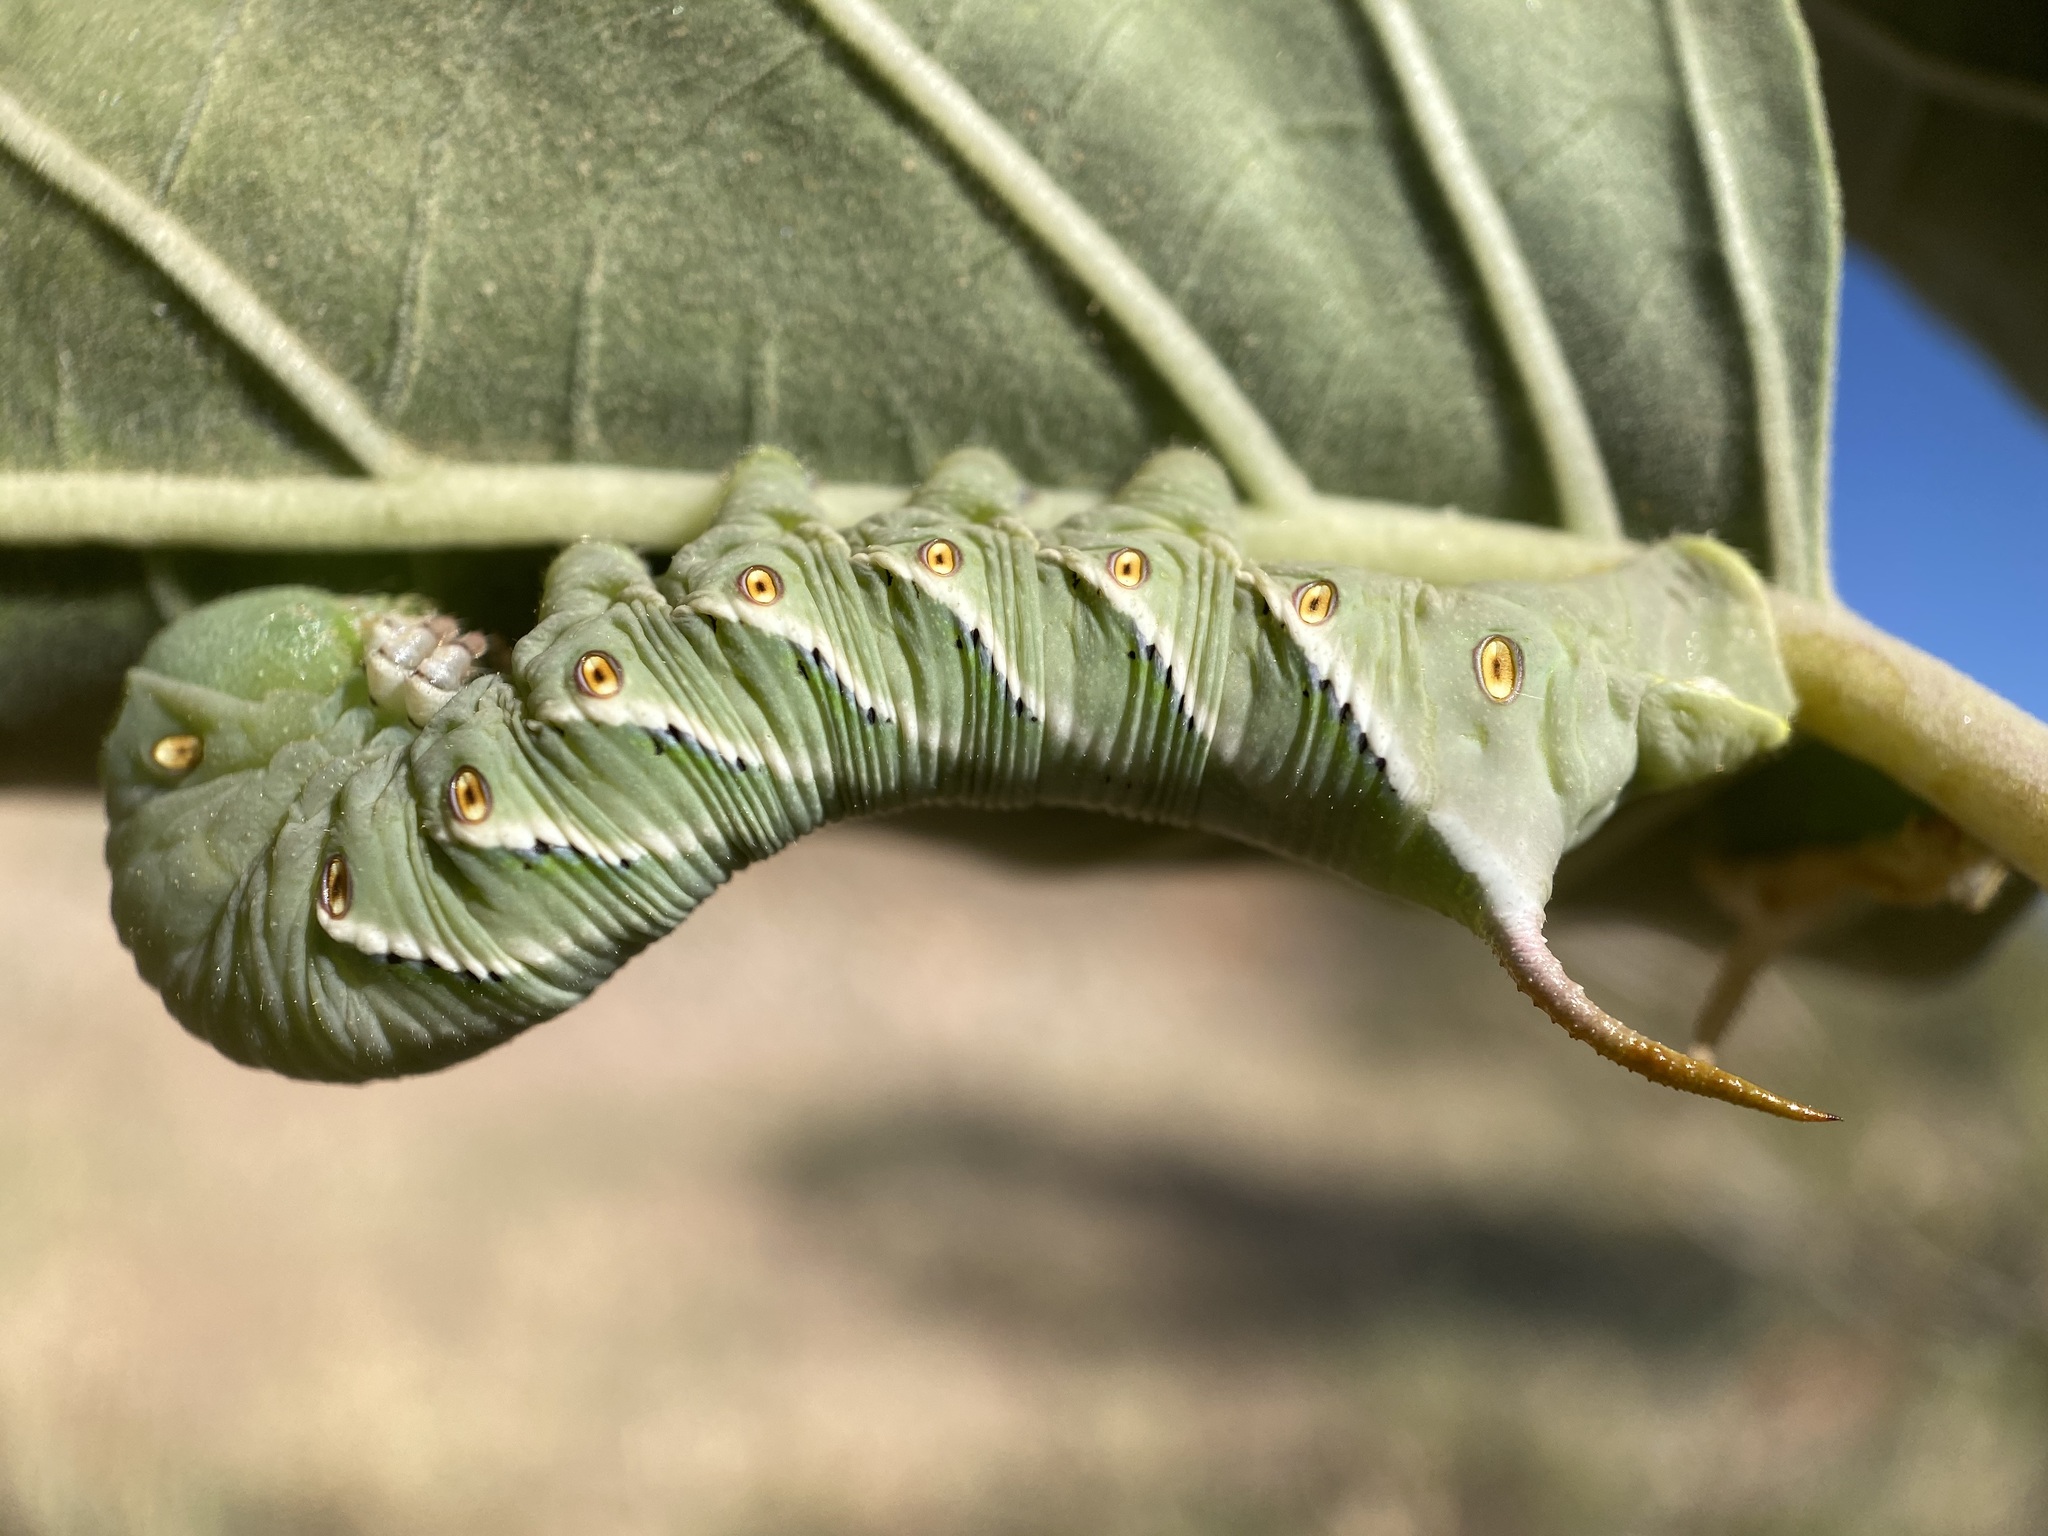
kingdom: Animalia
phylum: Arthropoda
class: Insecta
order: Lepidoptera
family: Sphingidae
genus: Manduca
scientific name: Manduca sexta
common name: Carolina sphinx
